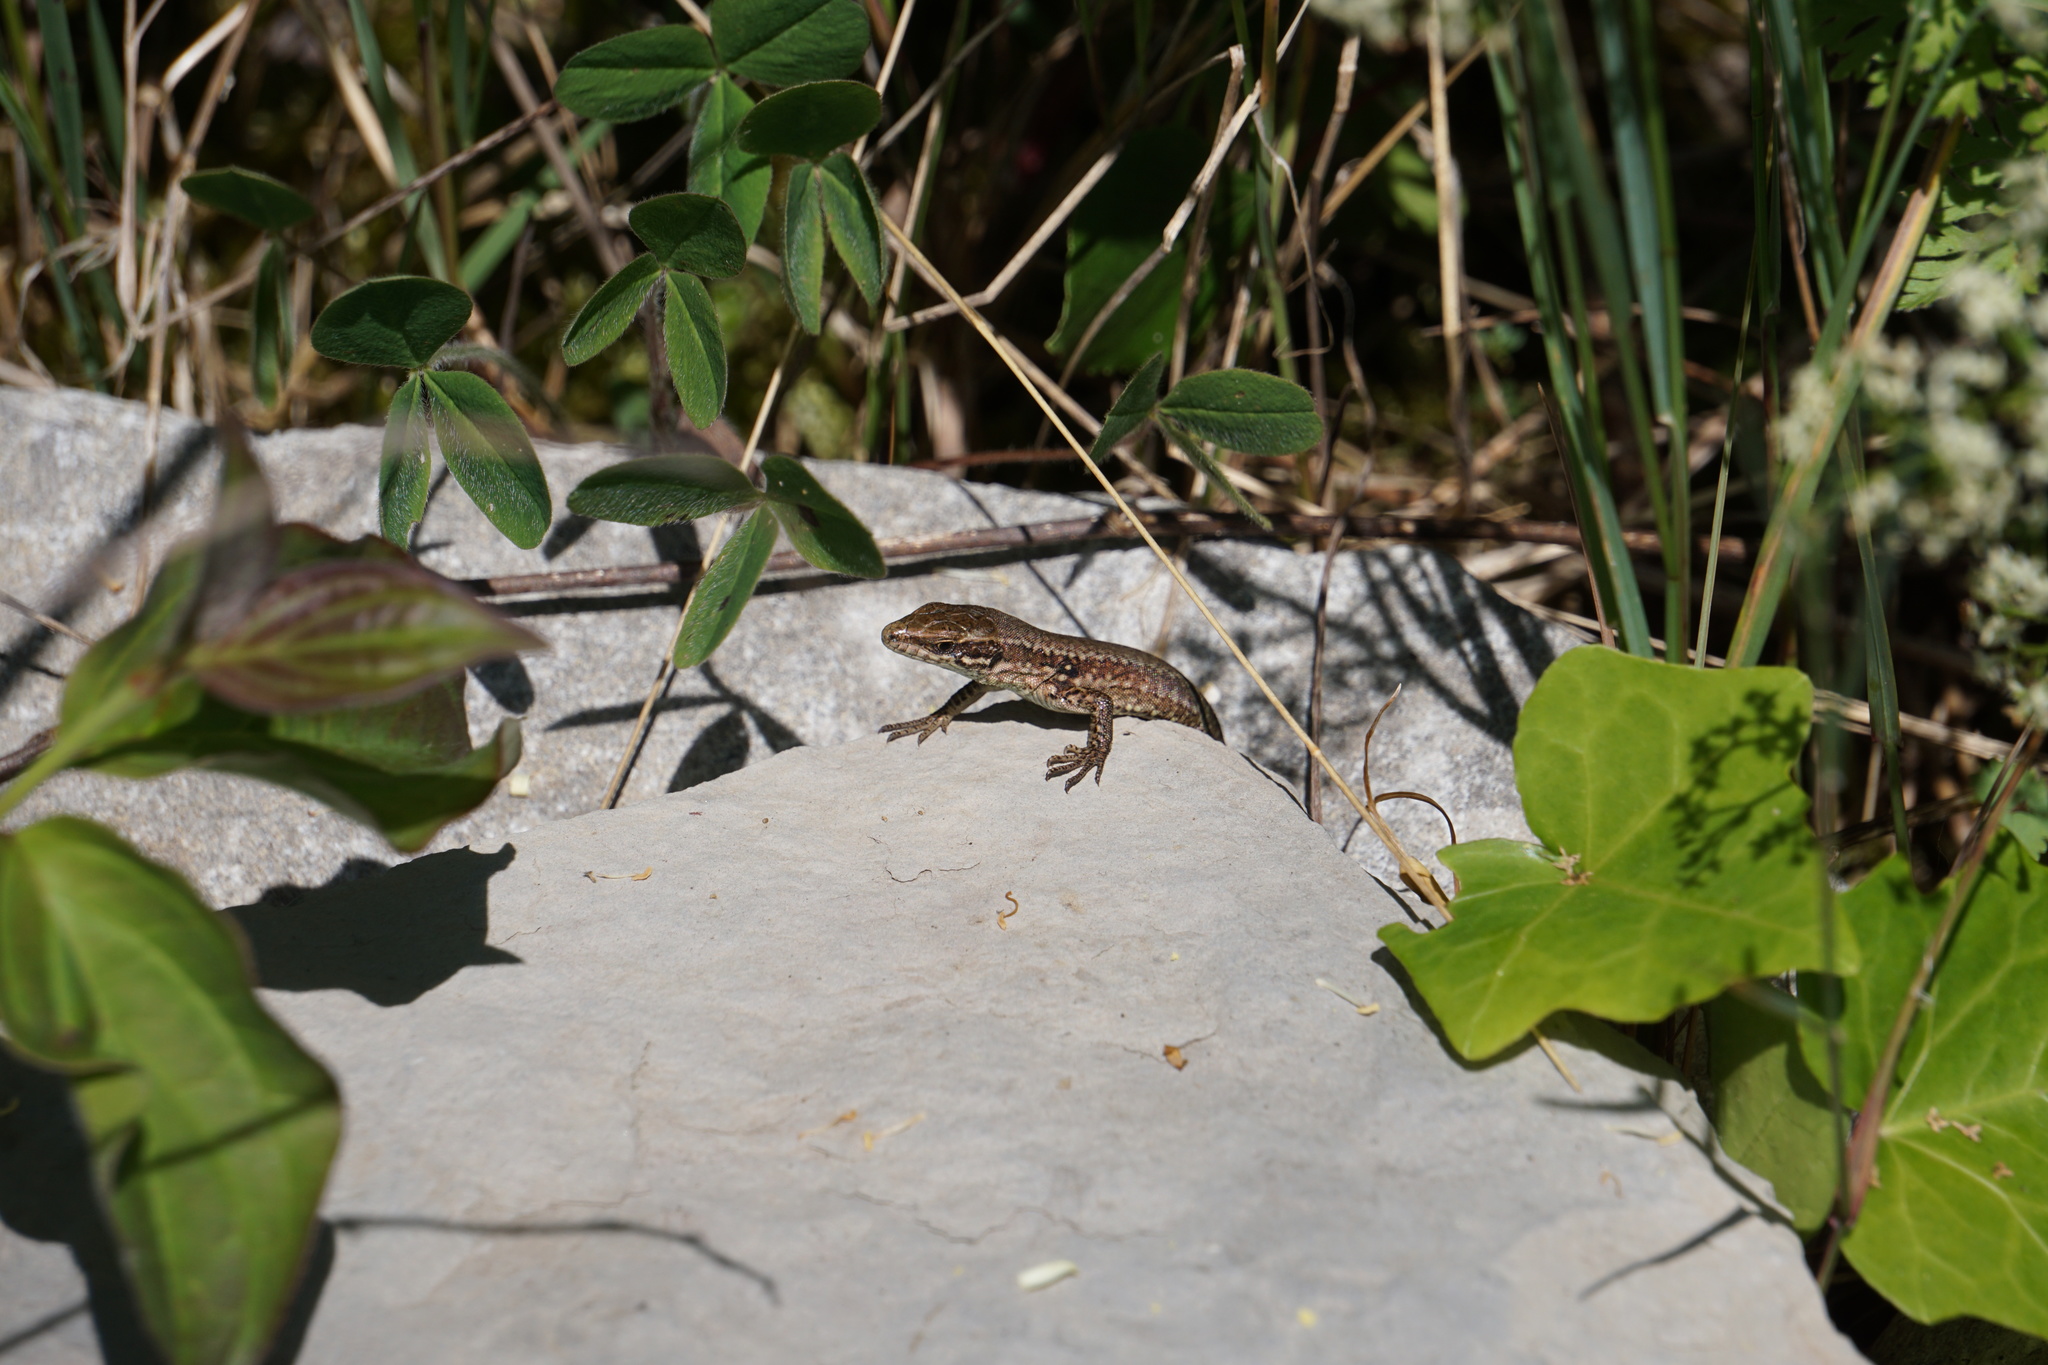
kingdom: Animalia
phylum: Chordata
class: Squamata
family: Lacertidae
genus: Podarcis
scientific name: Podarcis muralis
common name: Common wall lizard
